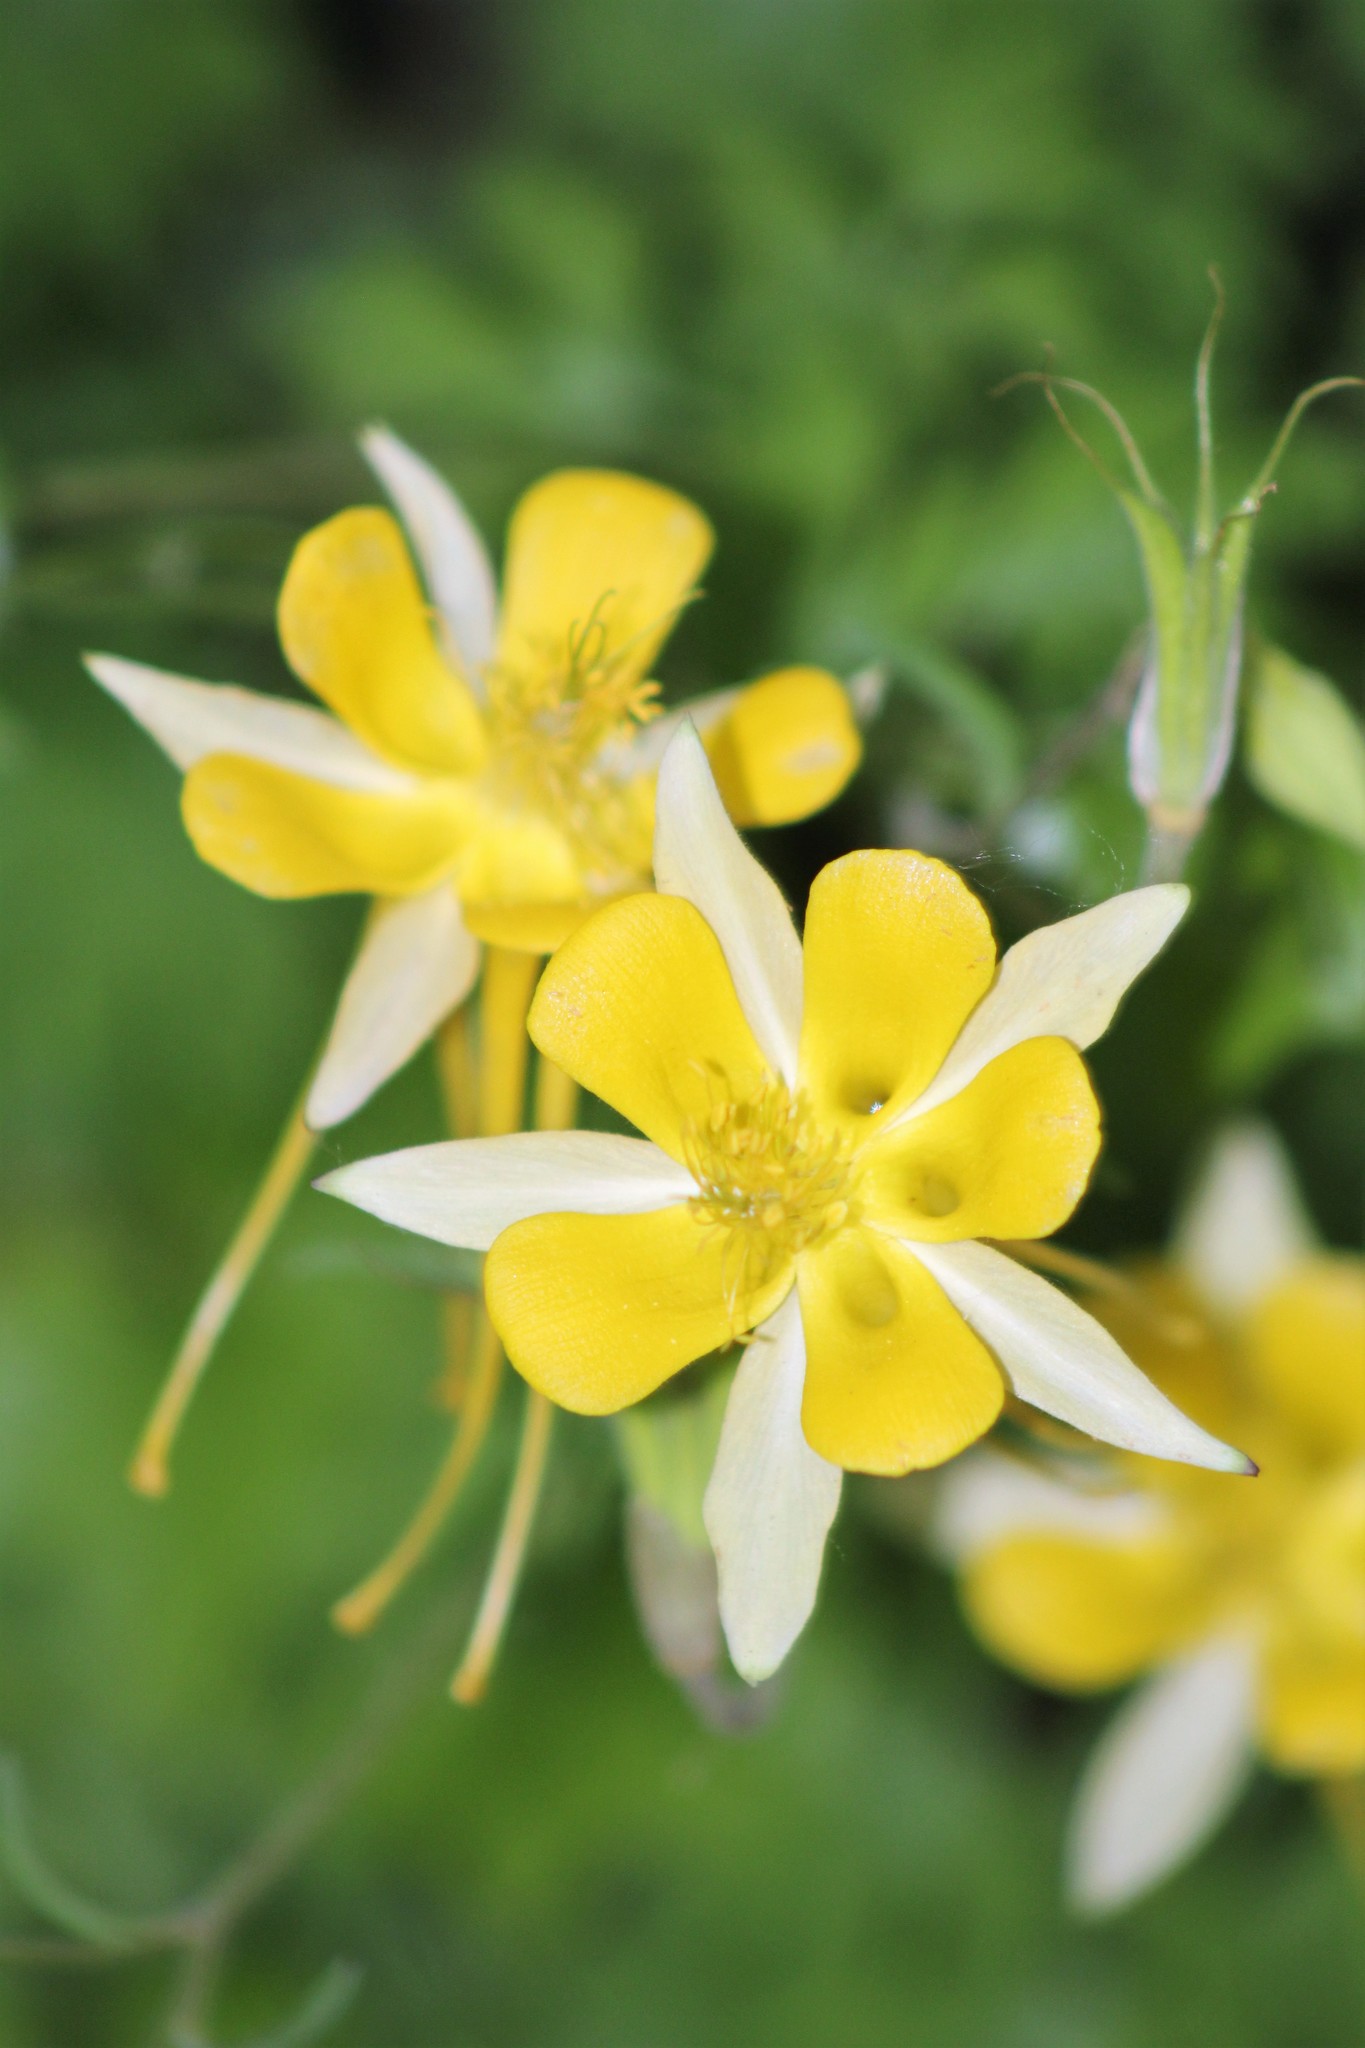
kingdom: Plantae
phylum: Tracheophyta
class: Magnoliopsida
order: Ranunculales
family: Ranunculaceae
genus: Aquilegia
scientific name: Aquilegia chrysantha
